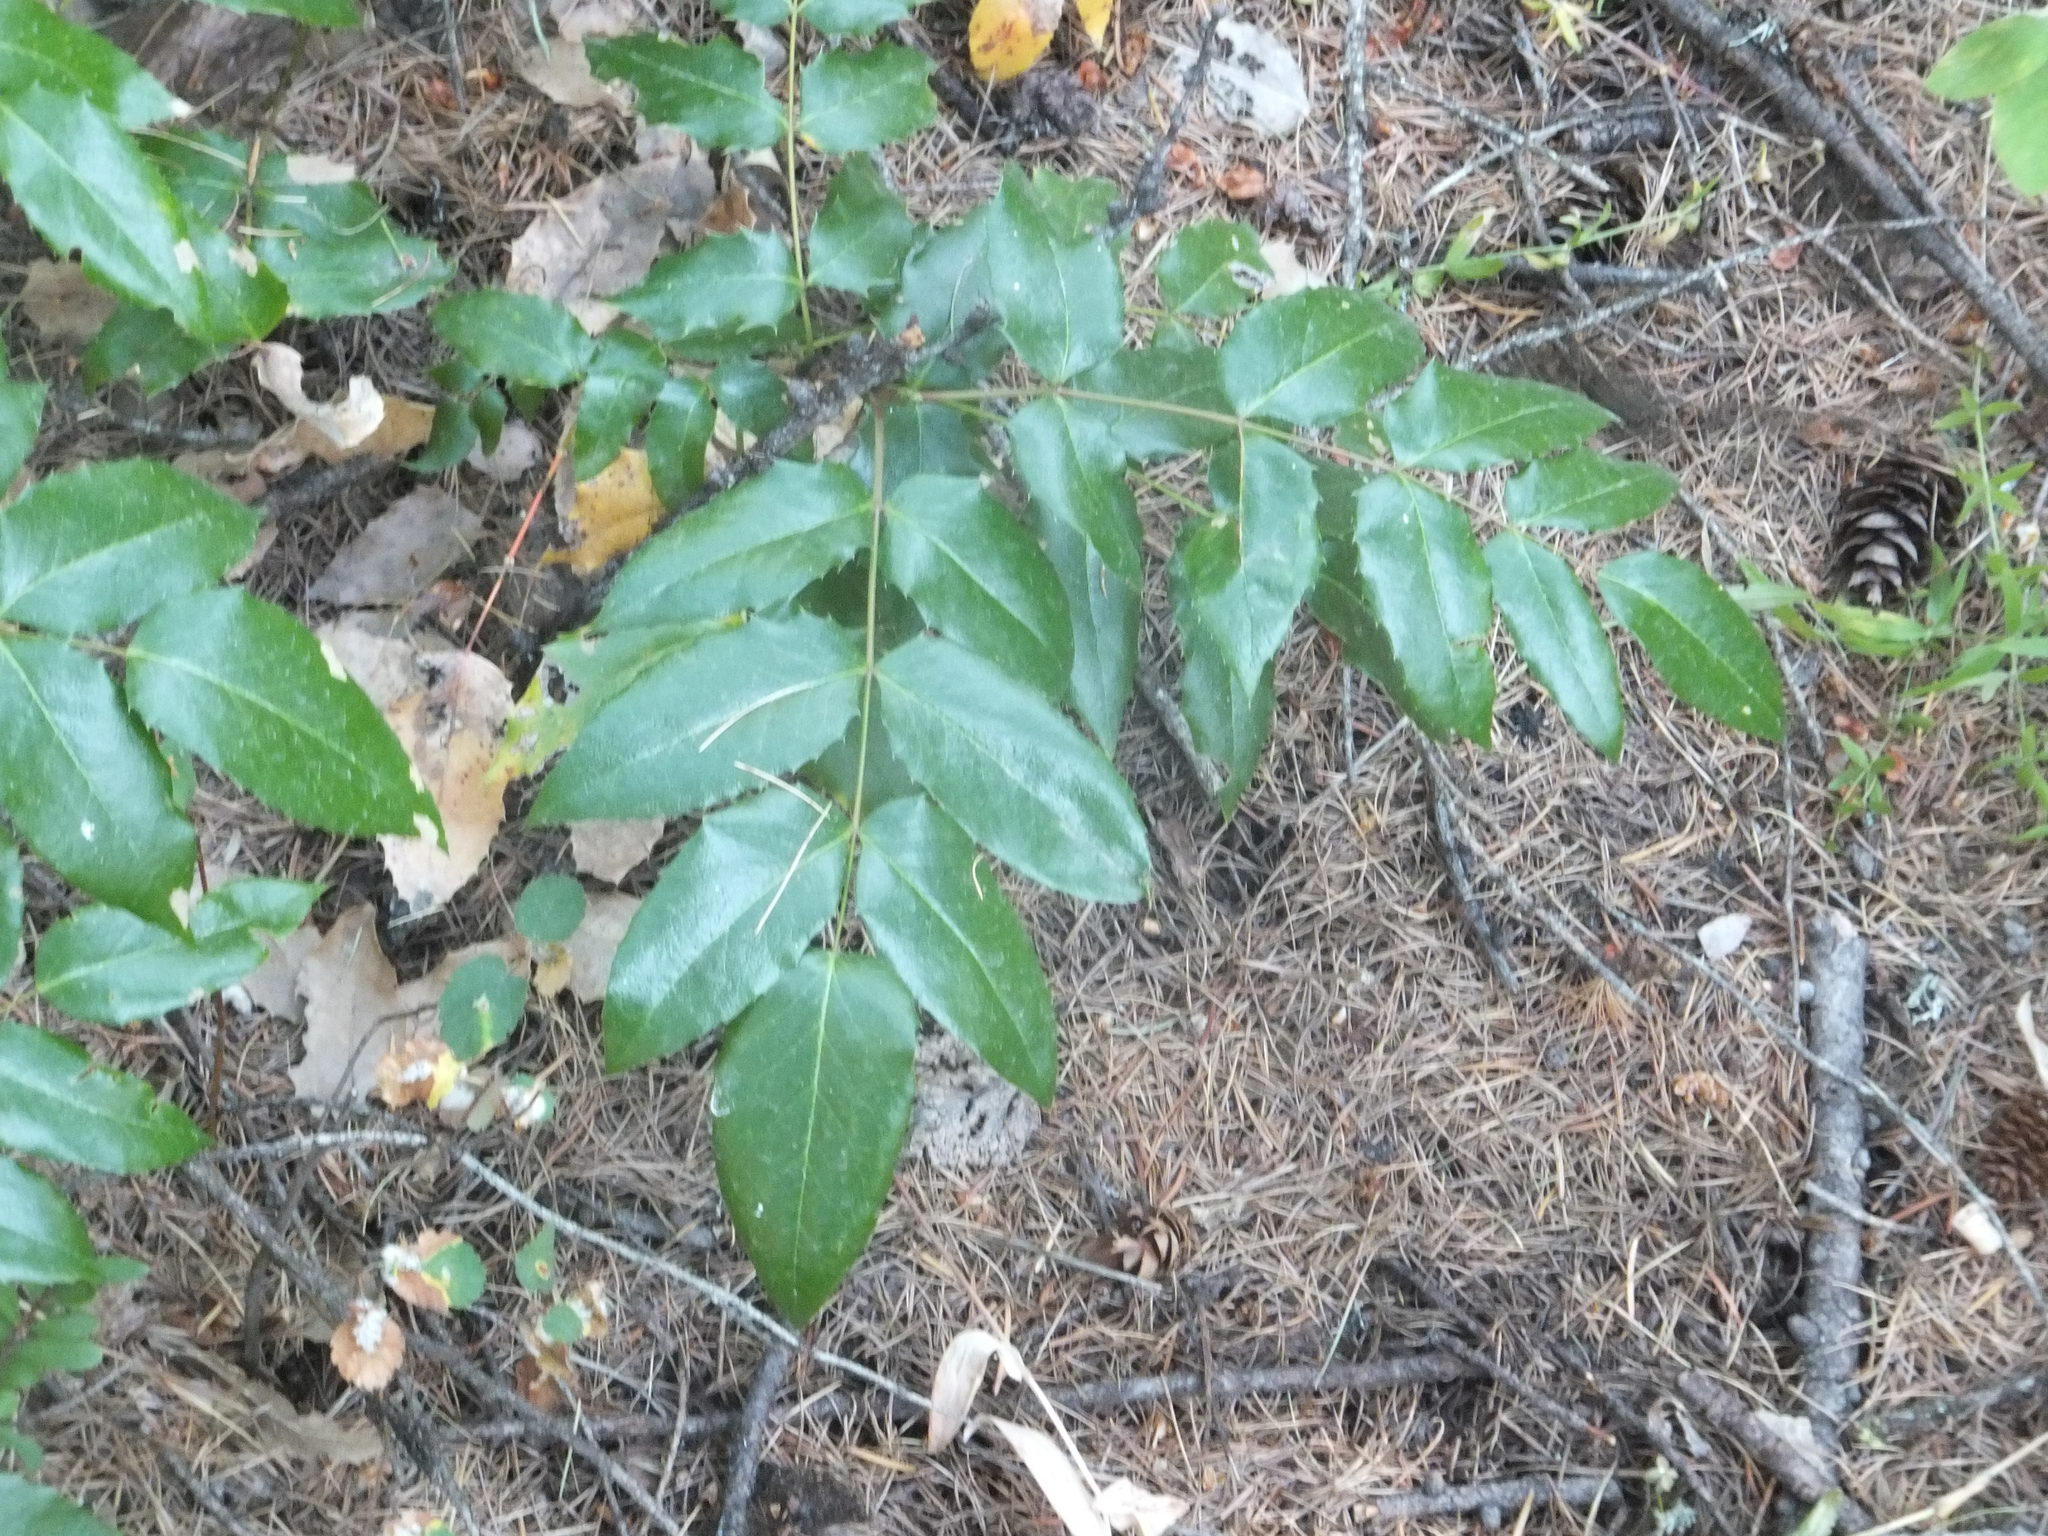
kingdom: Plantae
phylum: Tracheophyta
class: Magnoliopsida
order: Ranunculales
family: Berberidaceae
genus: Mahonia
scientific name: Mahonia aquifolium
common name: Oregon-grape
